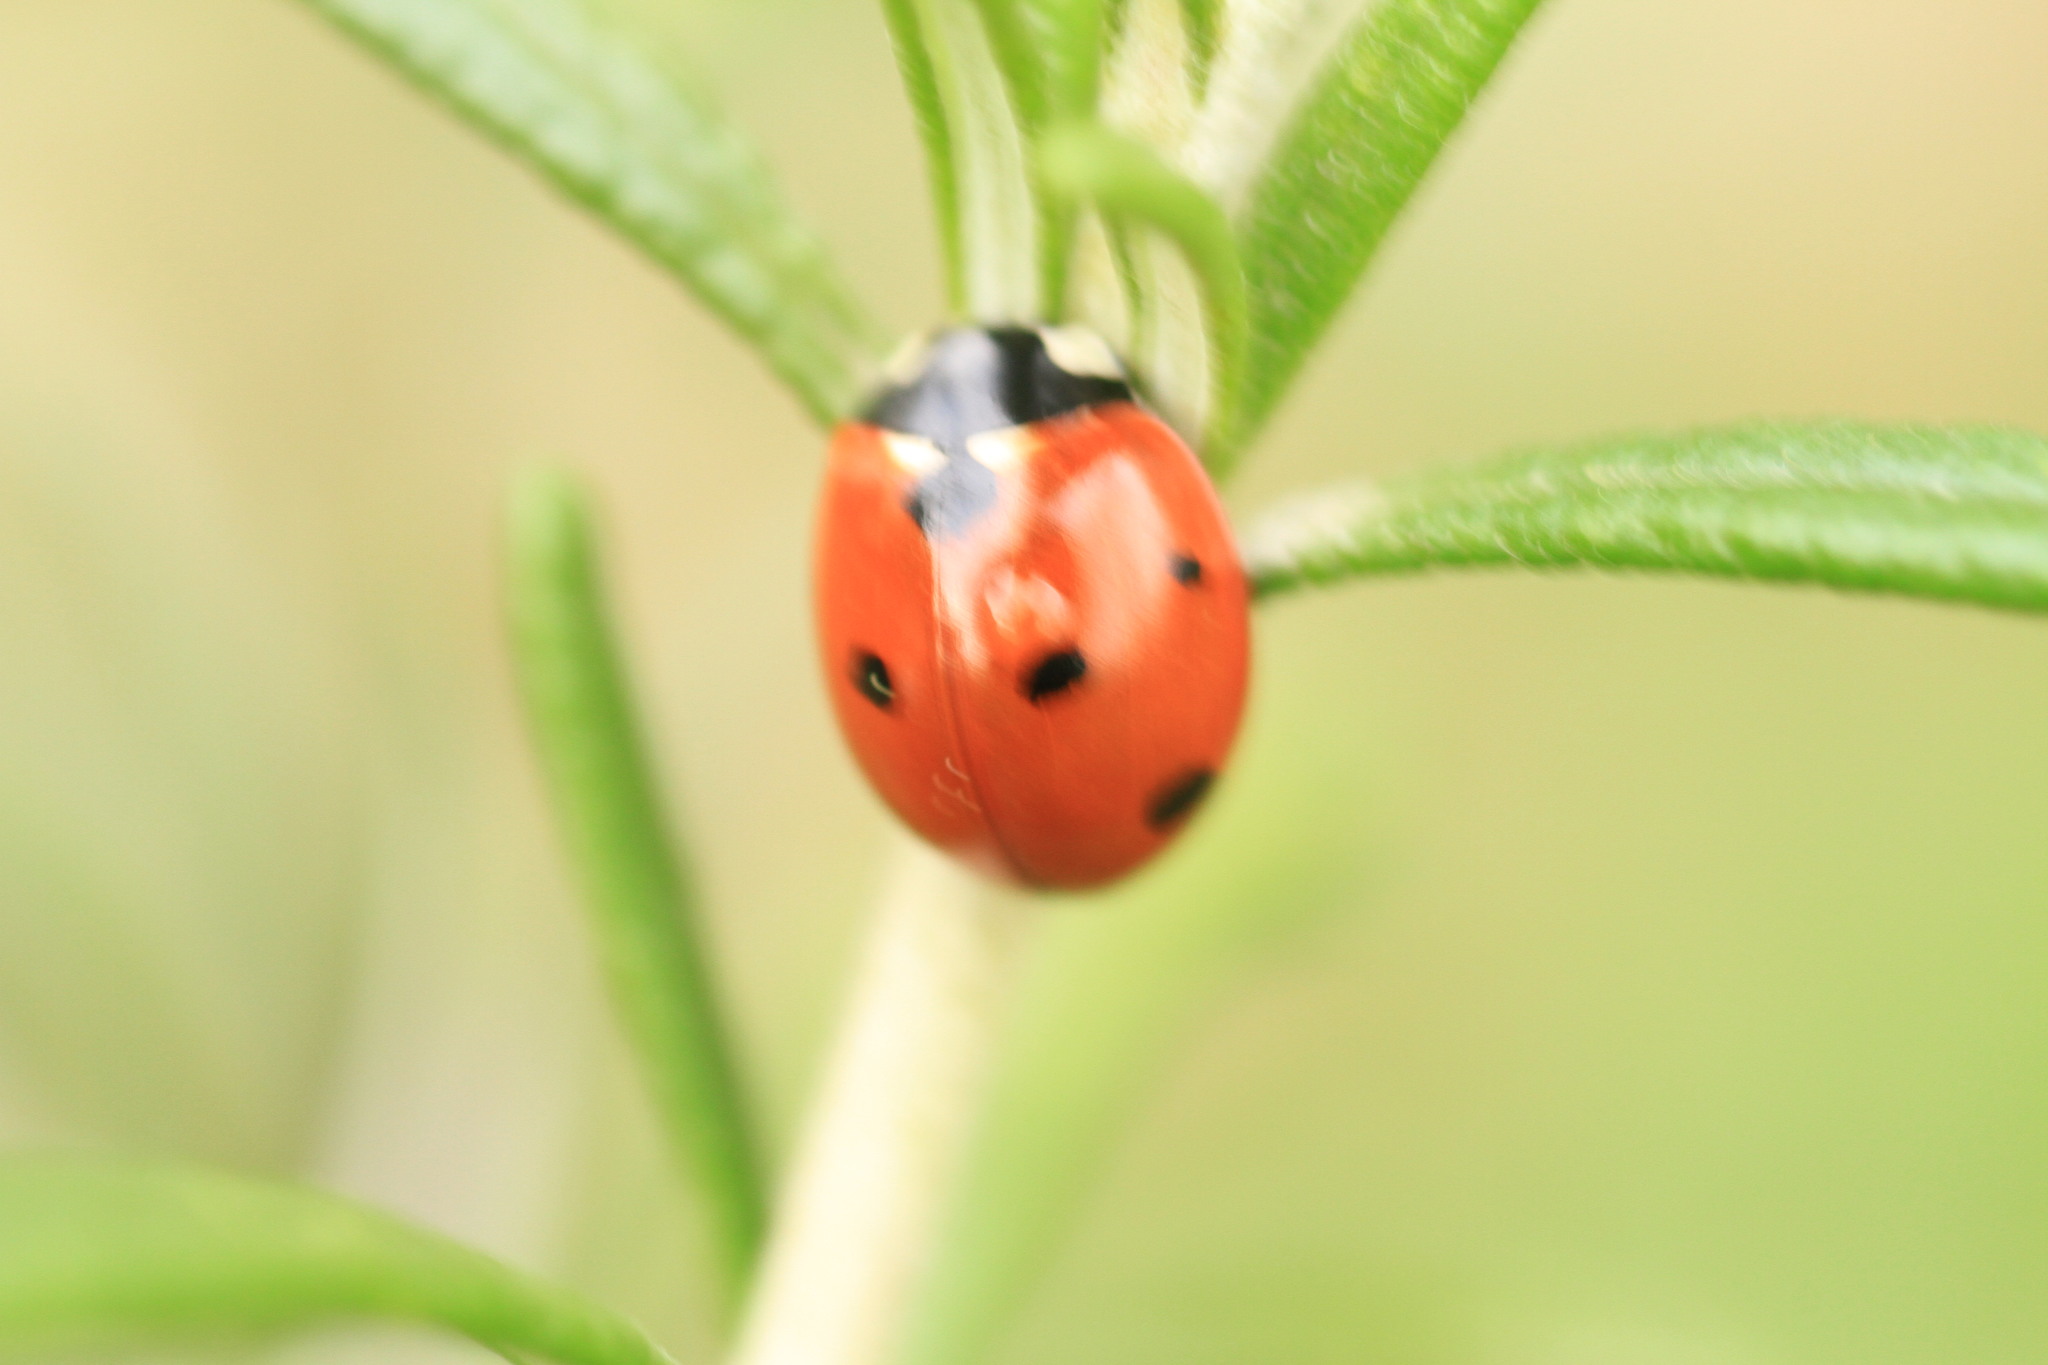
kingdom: Animalia
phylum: Arthropoda
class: Insecta
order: Coleoptera
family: Coccinellidae
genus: Coccinella
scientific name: Coccinella septempunctata
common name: Sevenspotted lady beetle
